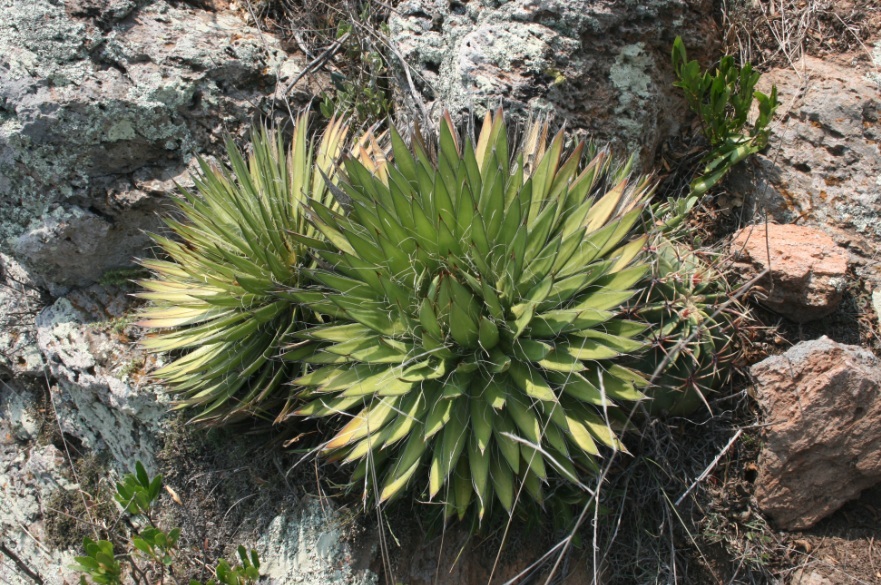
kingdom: Plantae
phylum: Tracheophyta
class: Liliopsida
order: Asparagales
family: Asparagaceae
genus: Agave
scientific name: Agave filifera
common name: Thread agave
